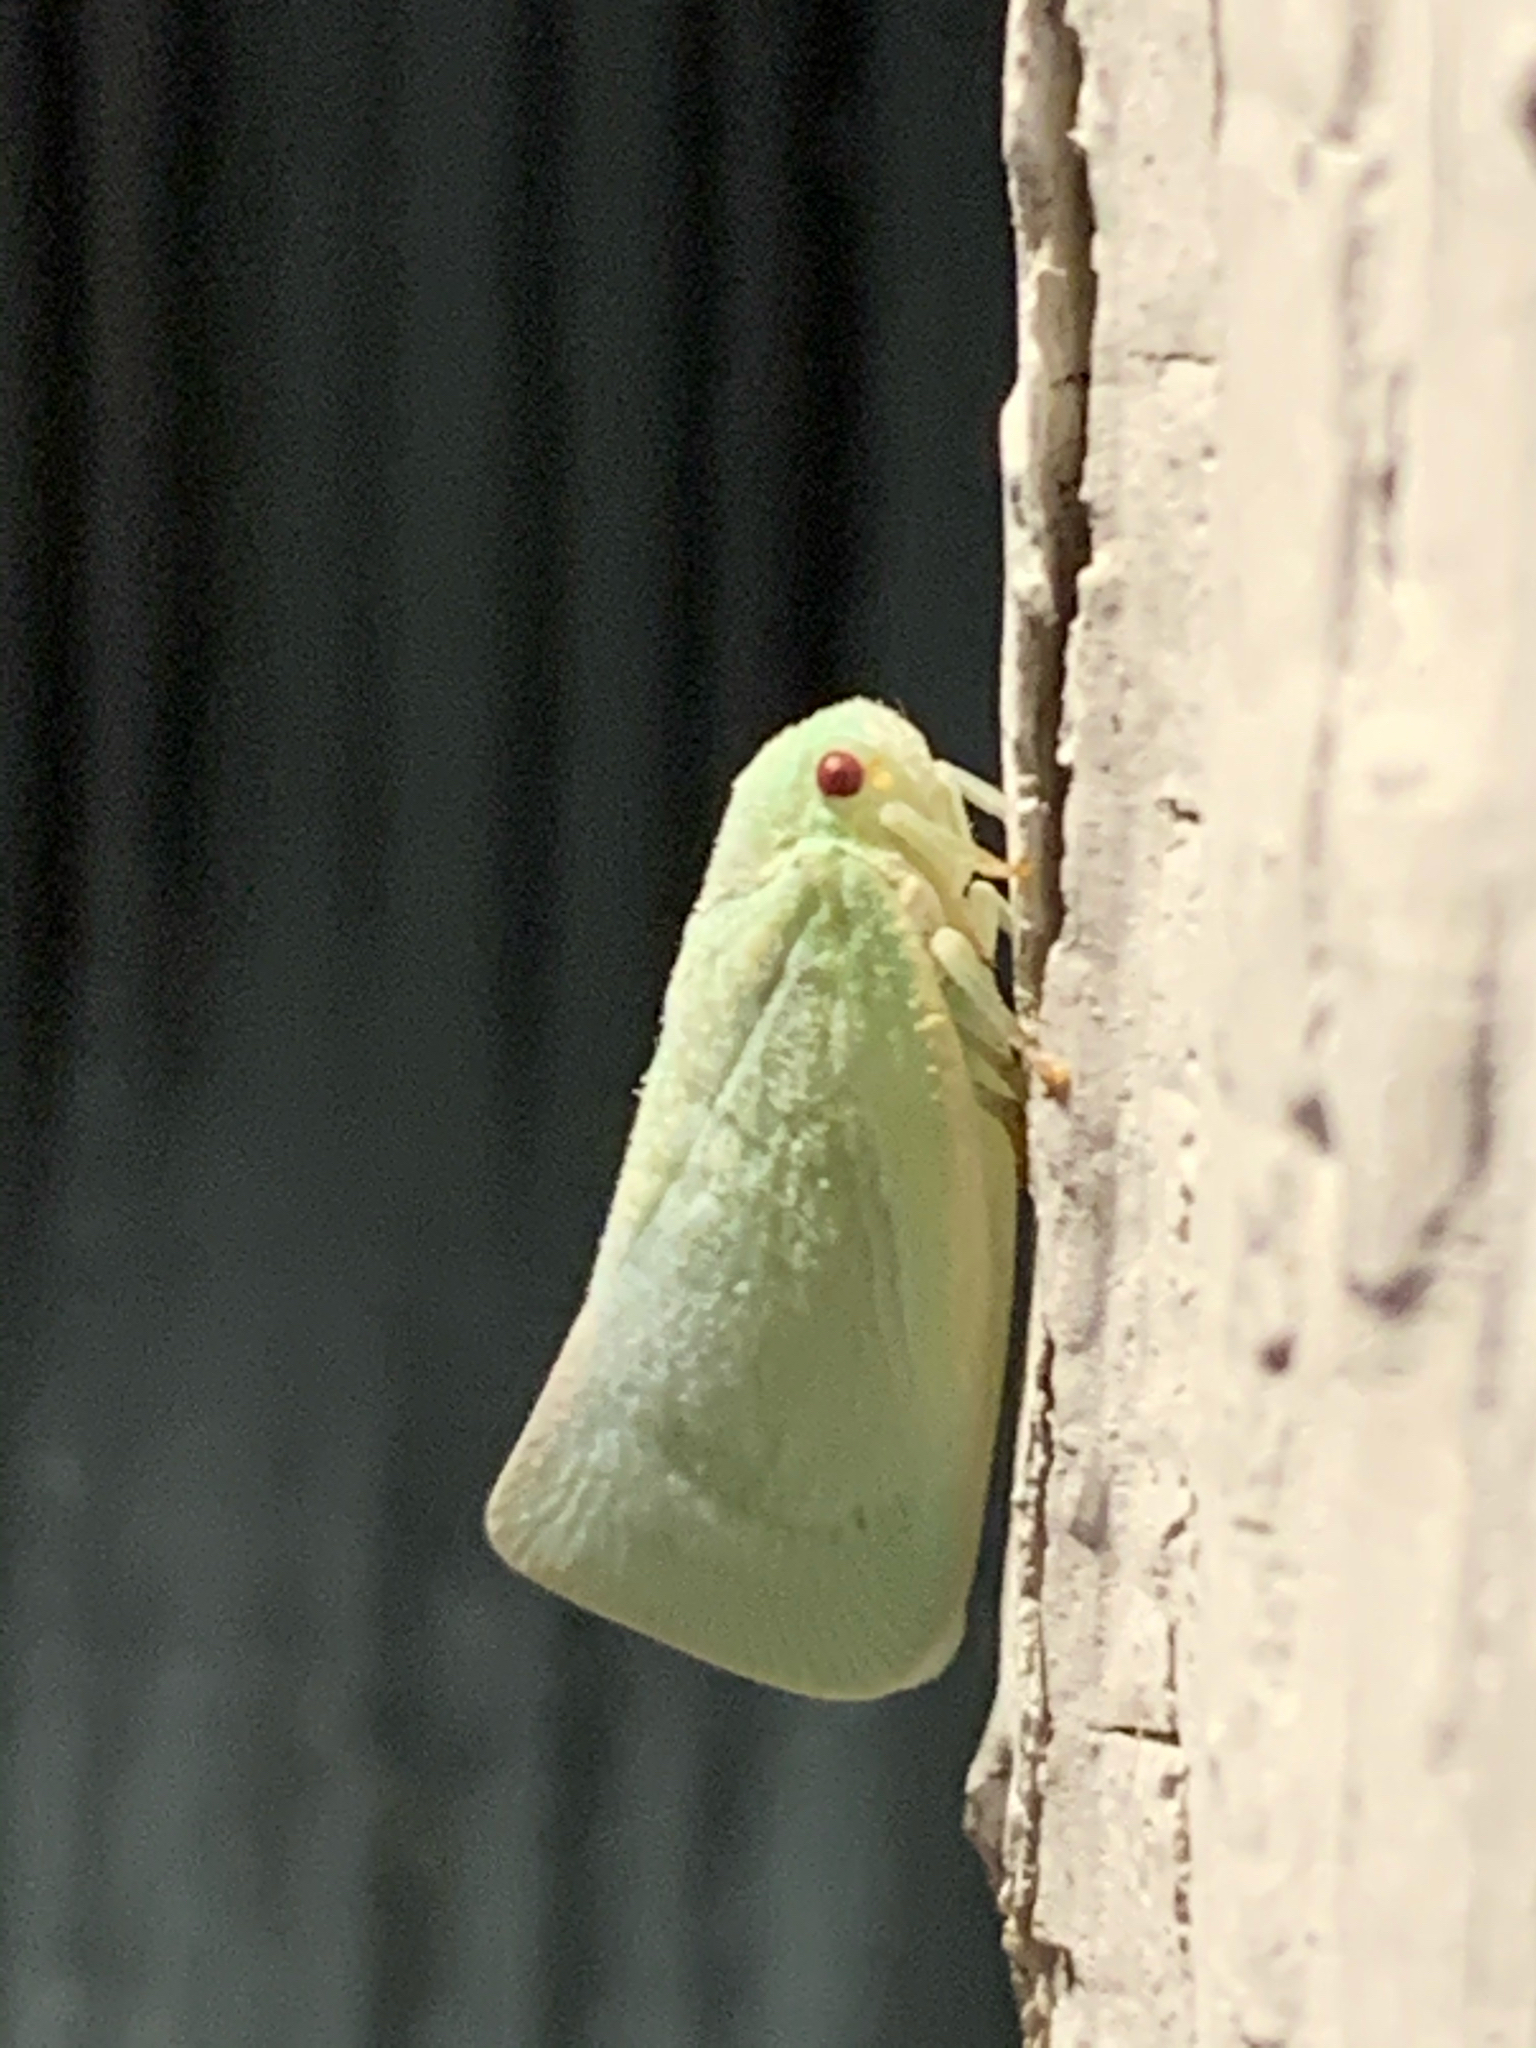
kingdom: Animalia
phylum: Arthropoda
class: Insecta
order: Hemiptera
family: Flatidae
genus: Flatormenis
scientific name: Flatormenis proxima
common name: Northern flatid planthopper
